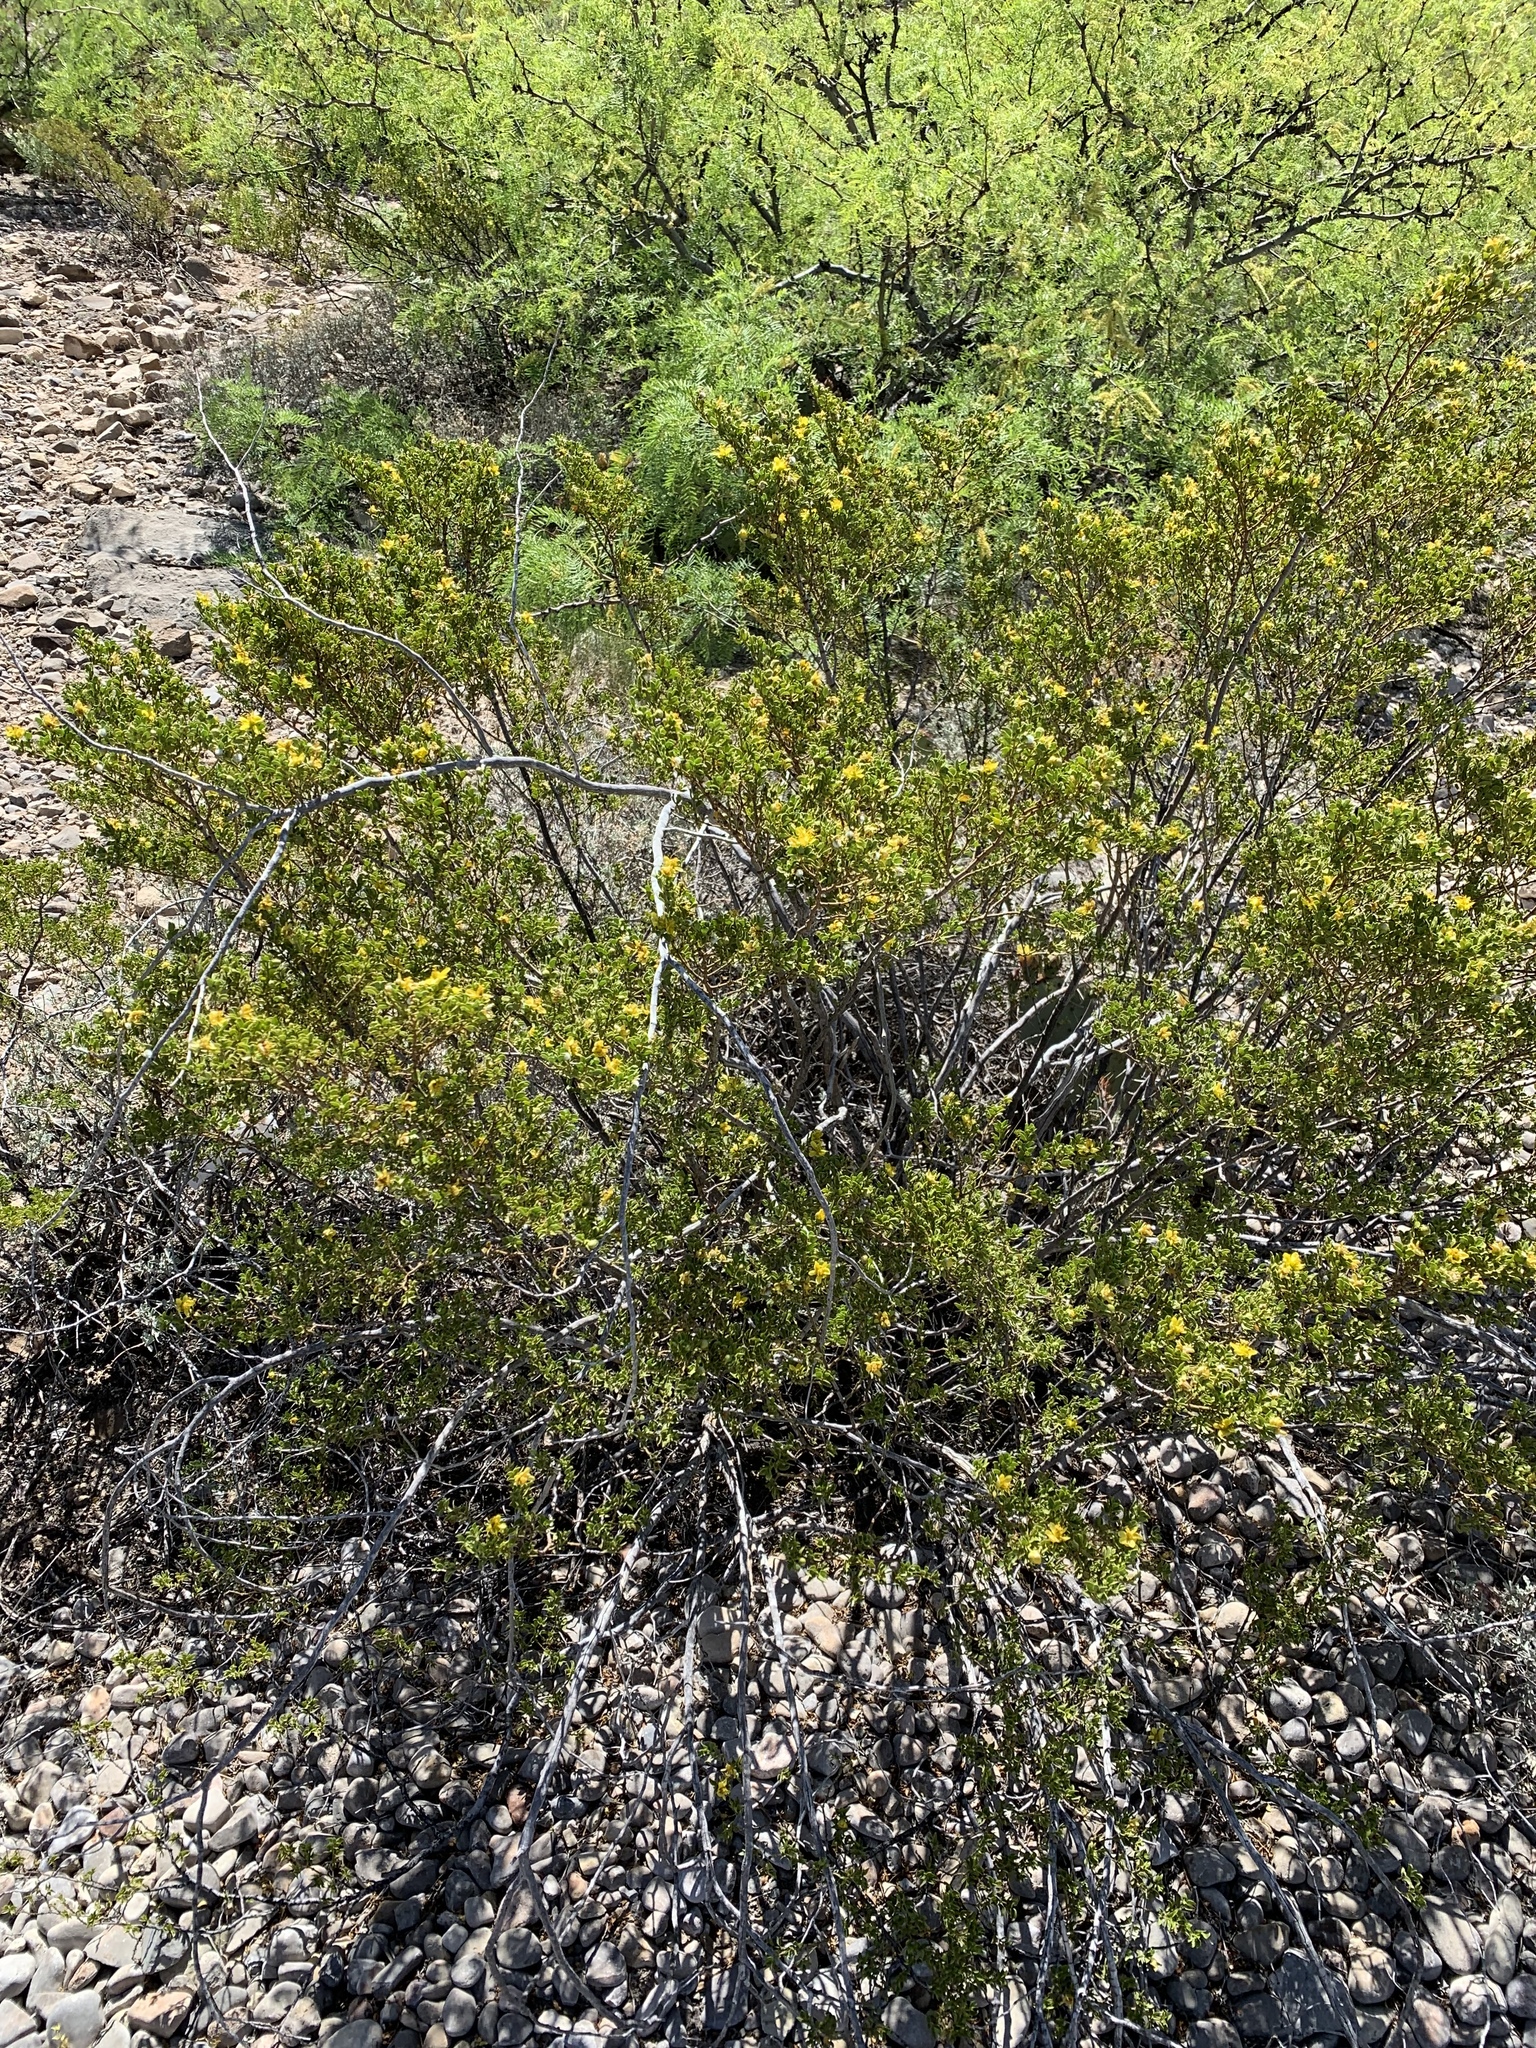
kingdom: Plantae
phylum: Tracheophyta
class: Magnoliopsida
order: Zygophyllales
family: Zygophyllaceae
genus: Larrea
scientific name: Larrea tridentata
